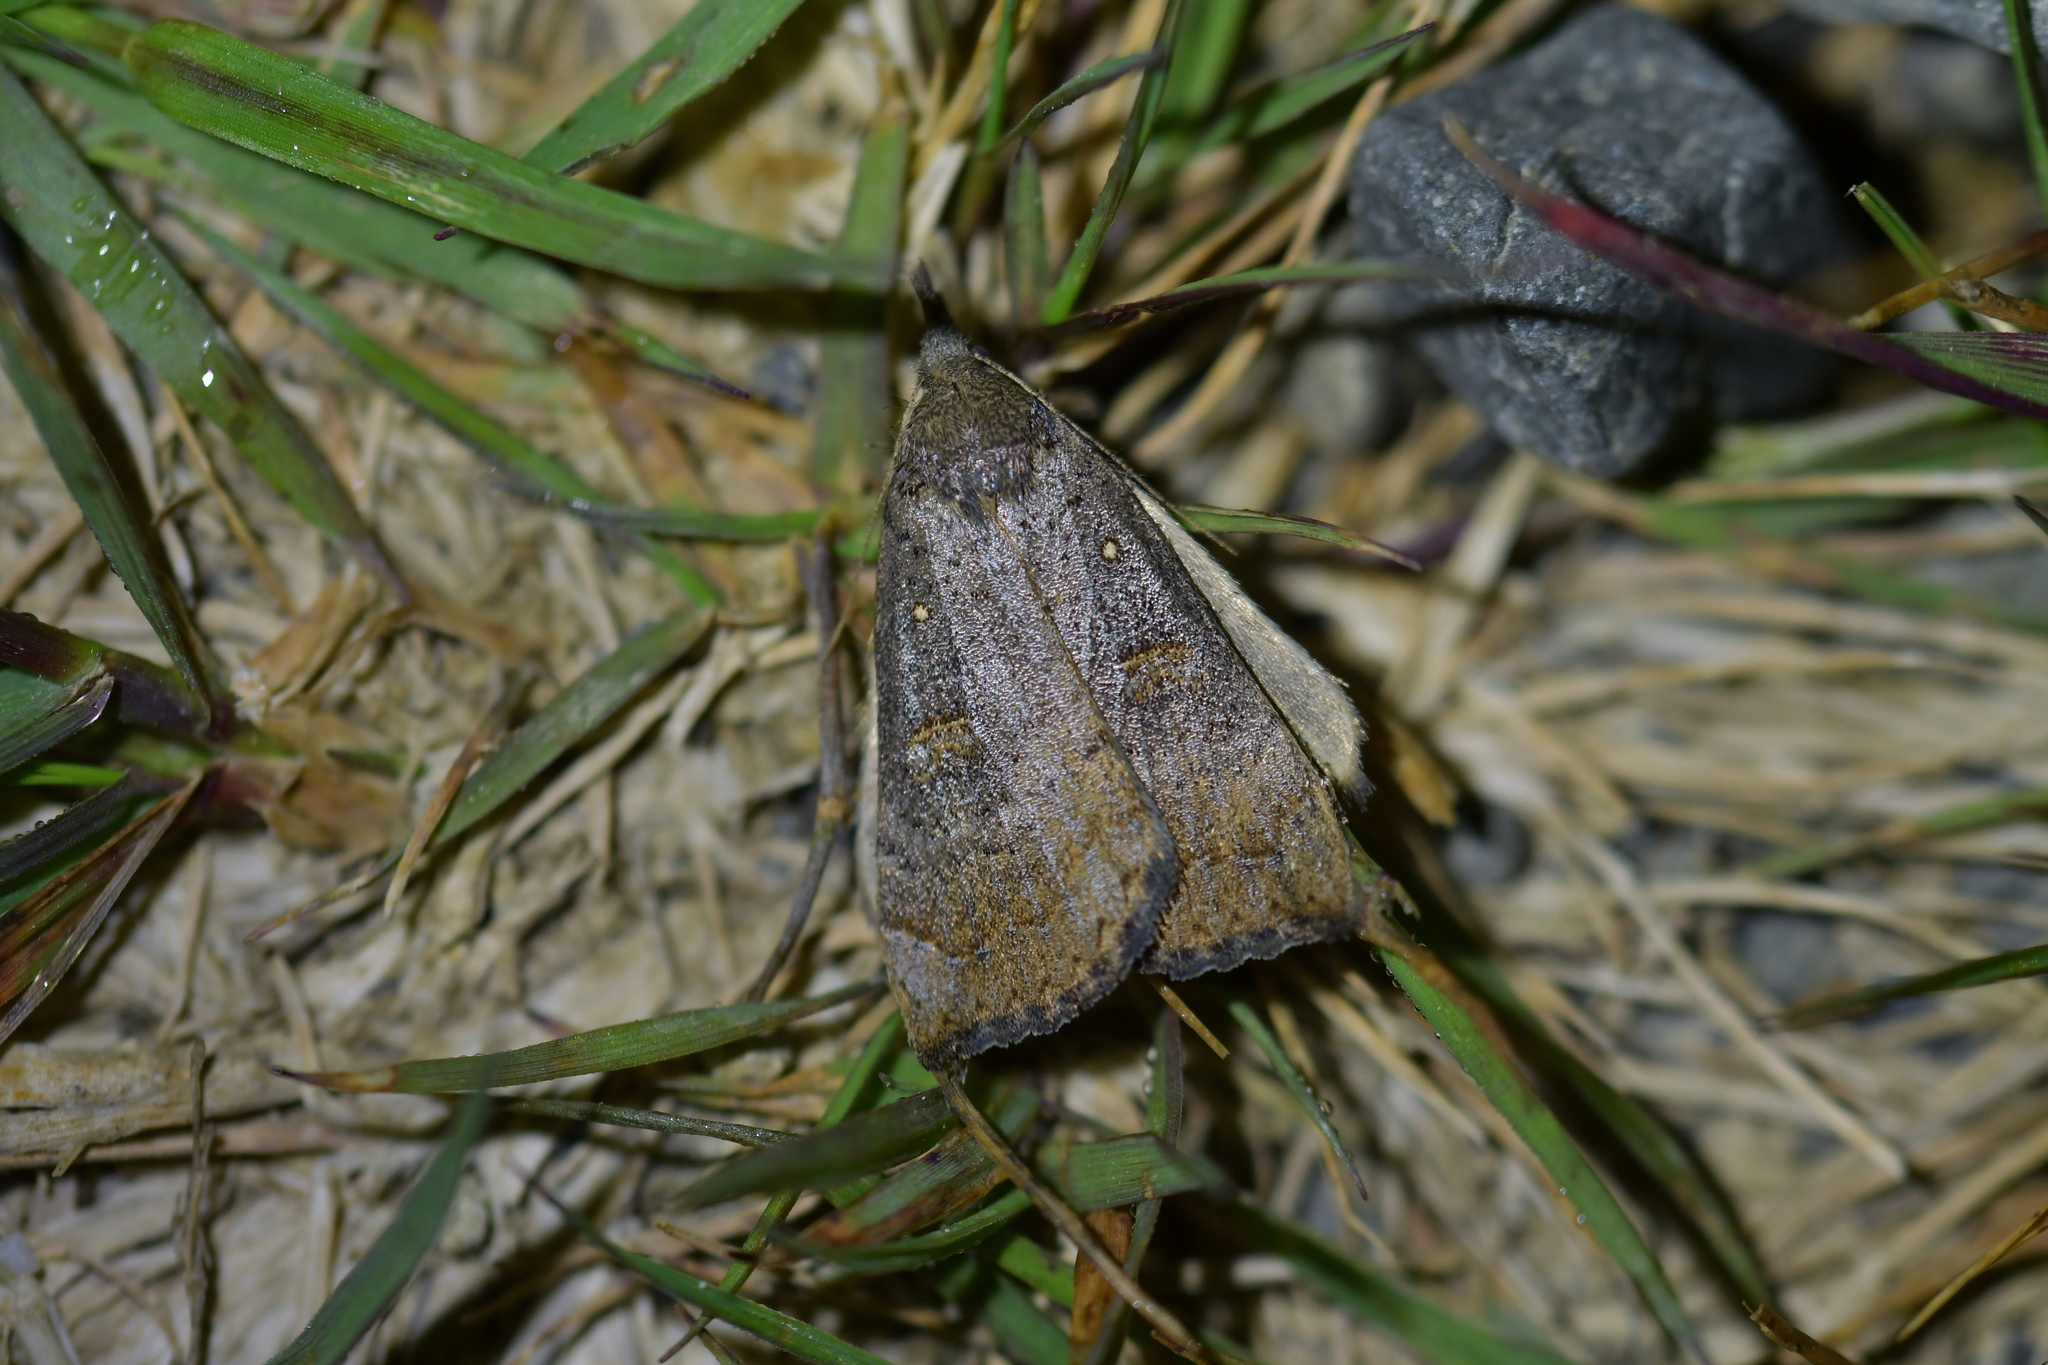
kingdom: Animalia
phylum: Arthropoda
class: Insecta
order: Lepidoptera
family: Erebidae
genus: Rhapsa
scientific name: Rhapsa scotosialis
